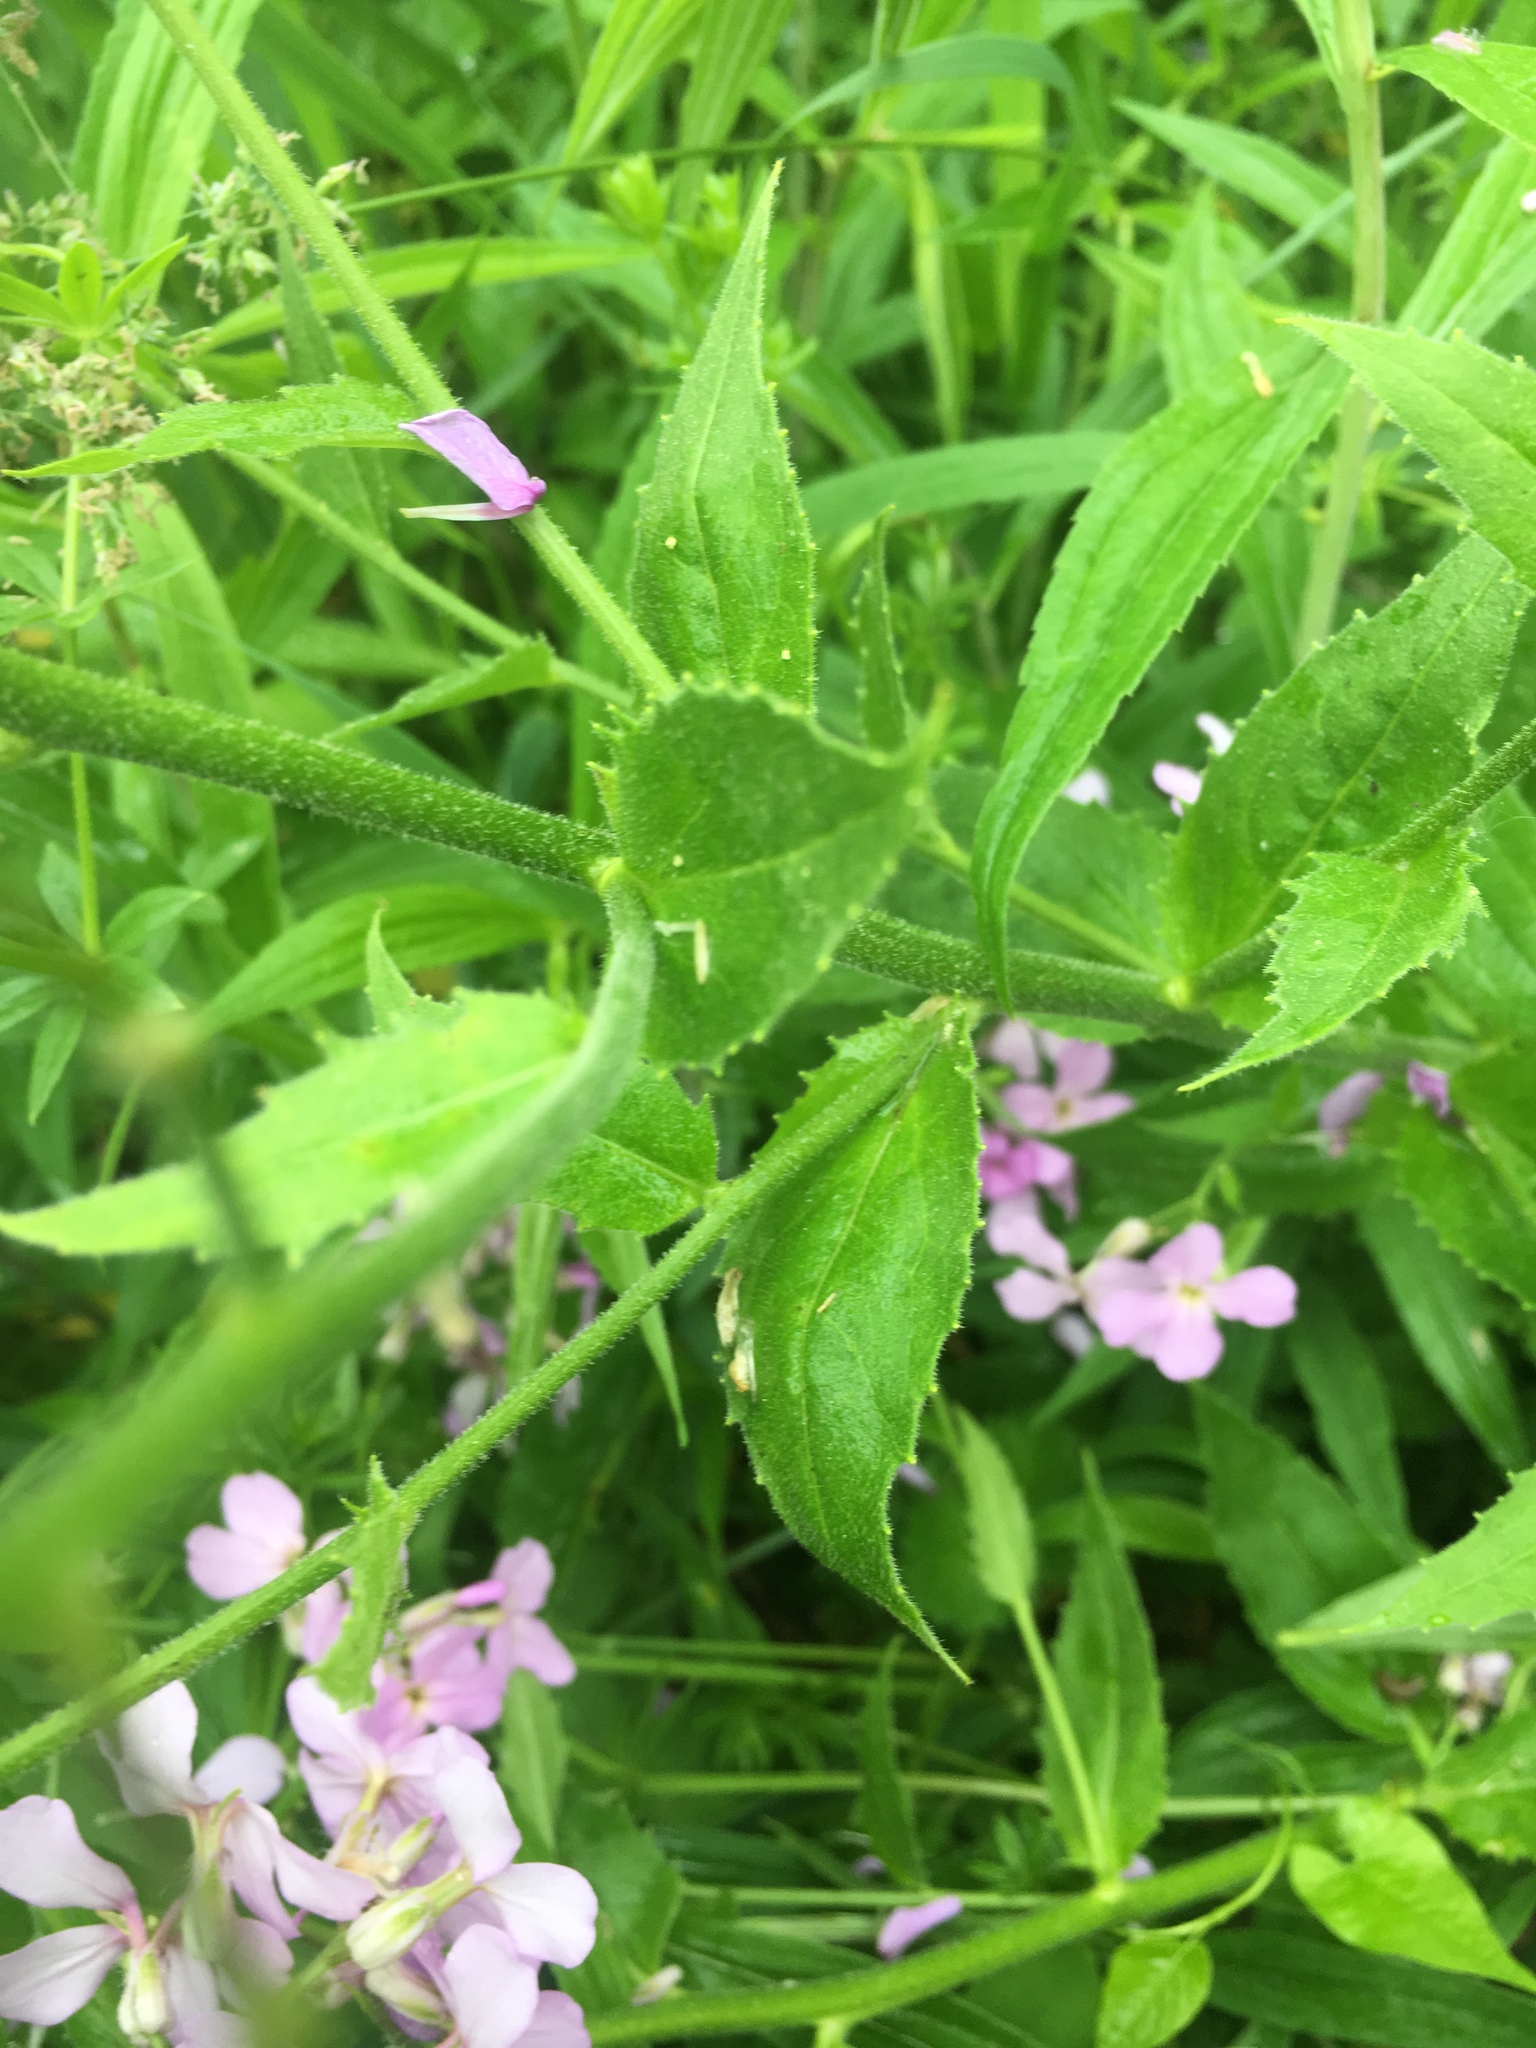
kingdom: Plantae
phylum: Tracheophyta
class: Magnoliopsida
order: Brassicales
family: Brassicaceae
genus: Hesperis
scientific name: Hesperis matronalis
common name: Dame's-violet
